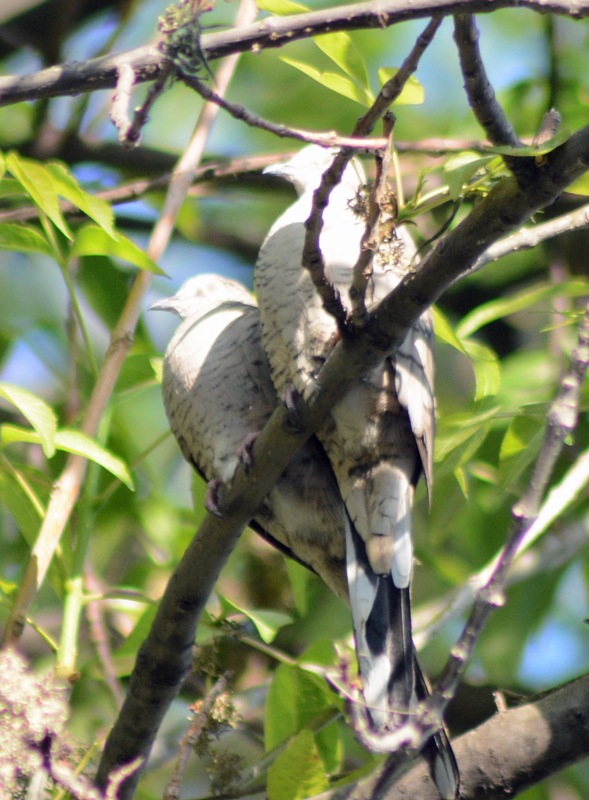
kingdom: Animalia
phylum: Chordata
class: Aves
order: Columbiformes
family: Columbidae
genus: Columbina
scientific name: Columbina inca
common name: Inca dove
